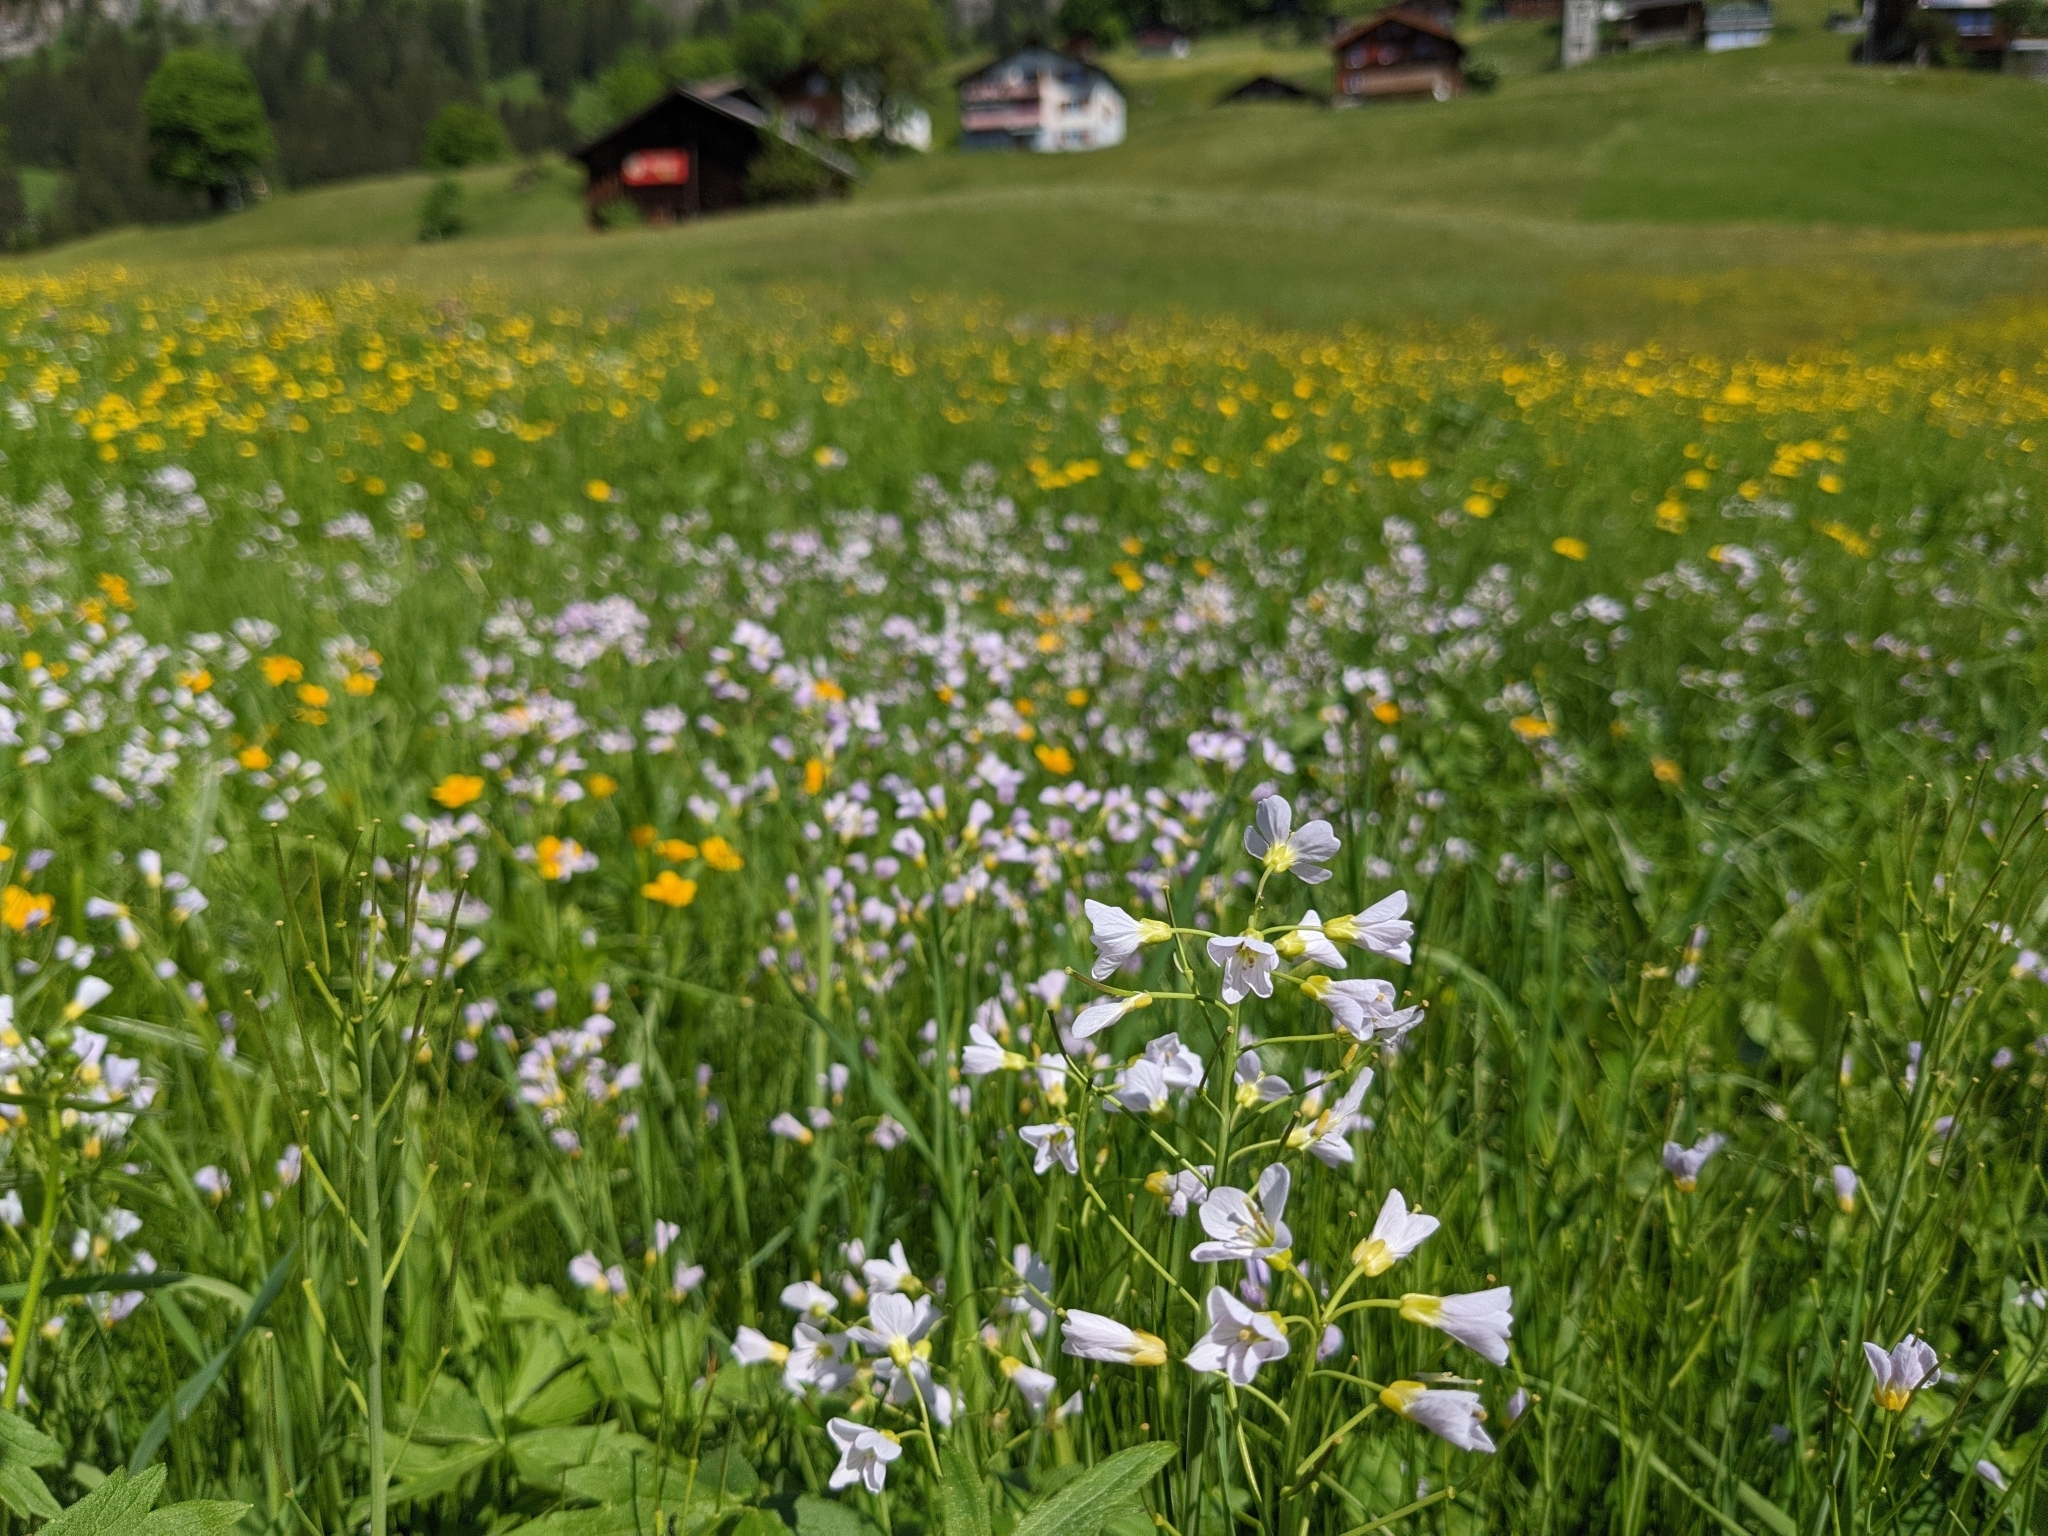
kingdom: Plantae
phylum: Tracheophyta
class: Magnoliopsida
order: Brassicales
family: Brassicaceae
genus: Cardamine
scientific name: Cardamine pratensis
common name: Cuckoo flower
